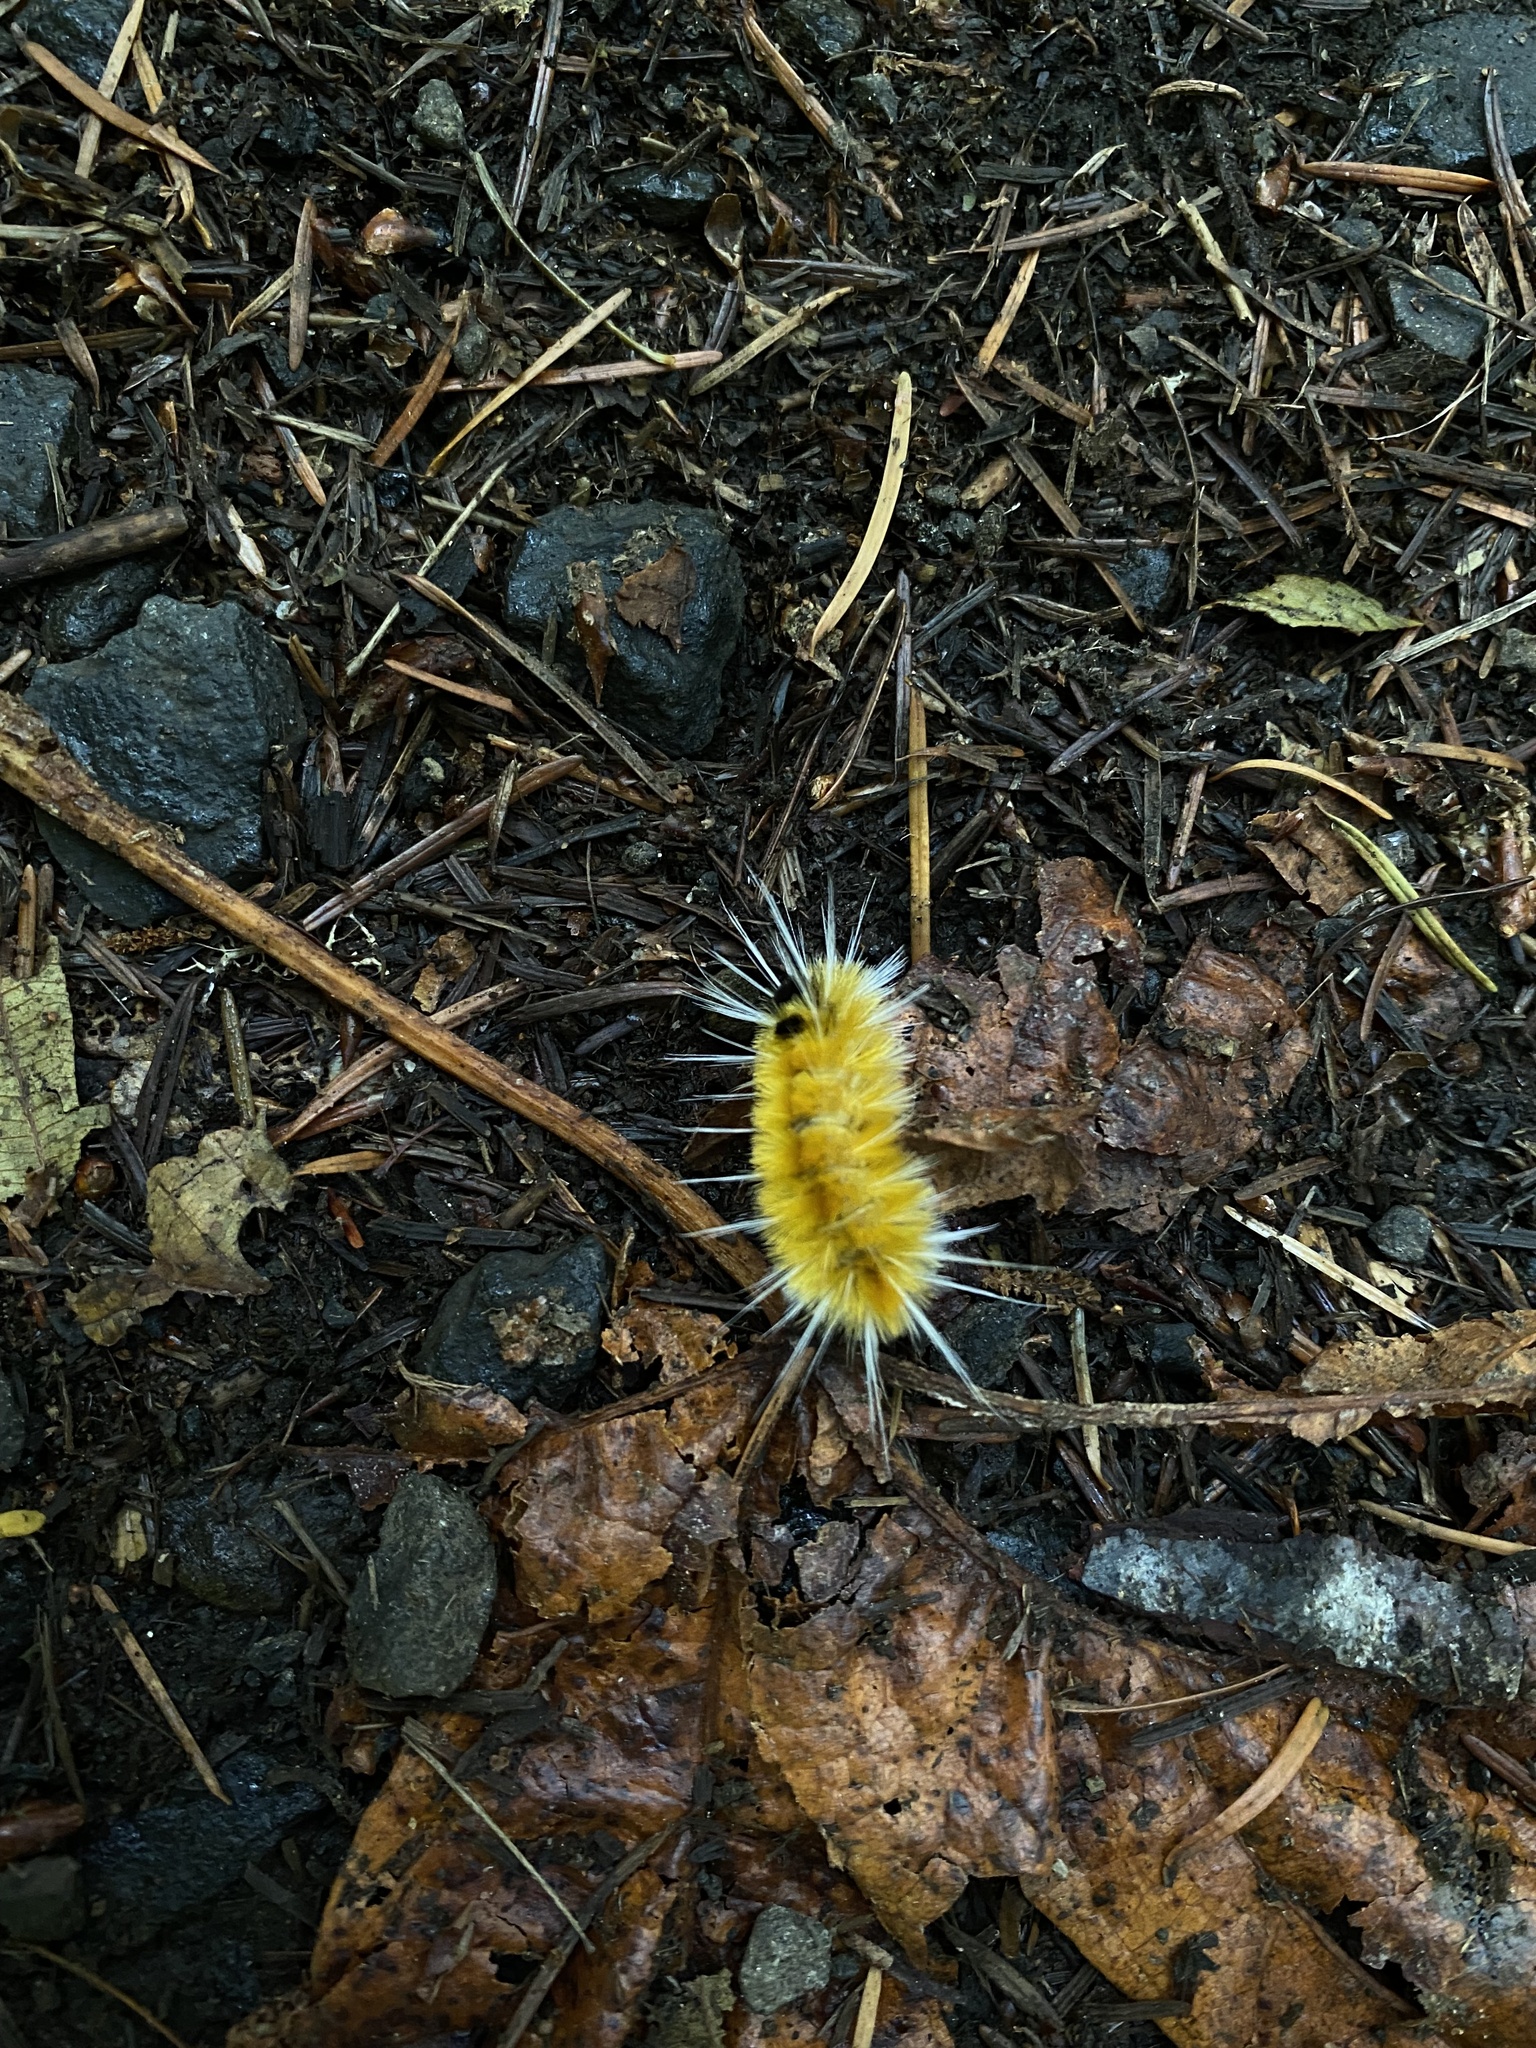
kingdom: Animalia
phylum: Arthropoda
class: Insecta
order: Lepidoptera
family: Erebidae
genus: Lophocampa
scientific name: Lophocampa maculata
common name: Spotted tussock moth
